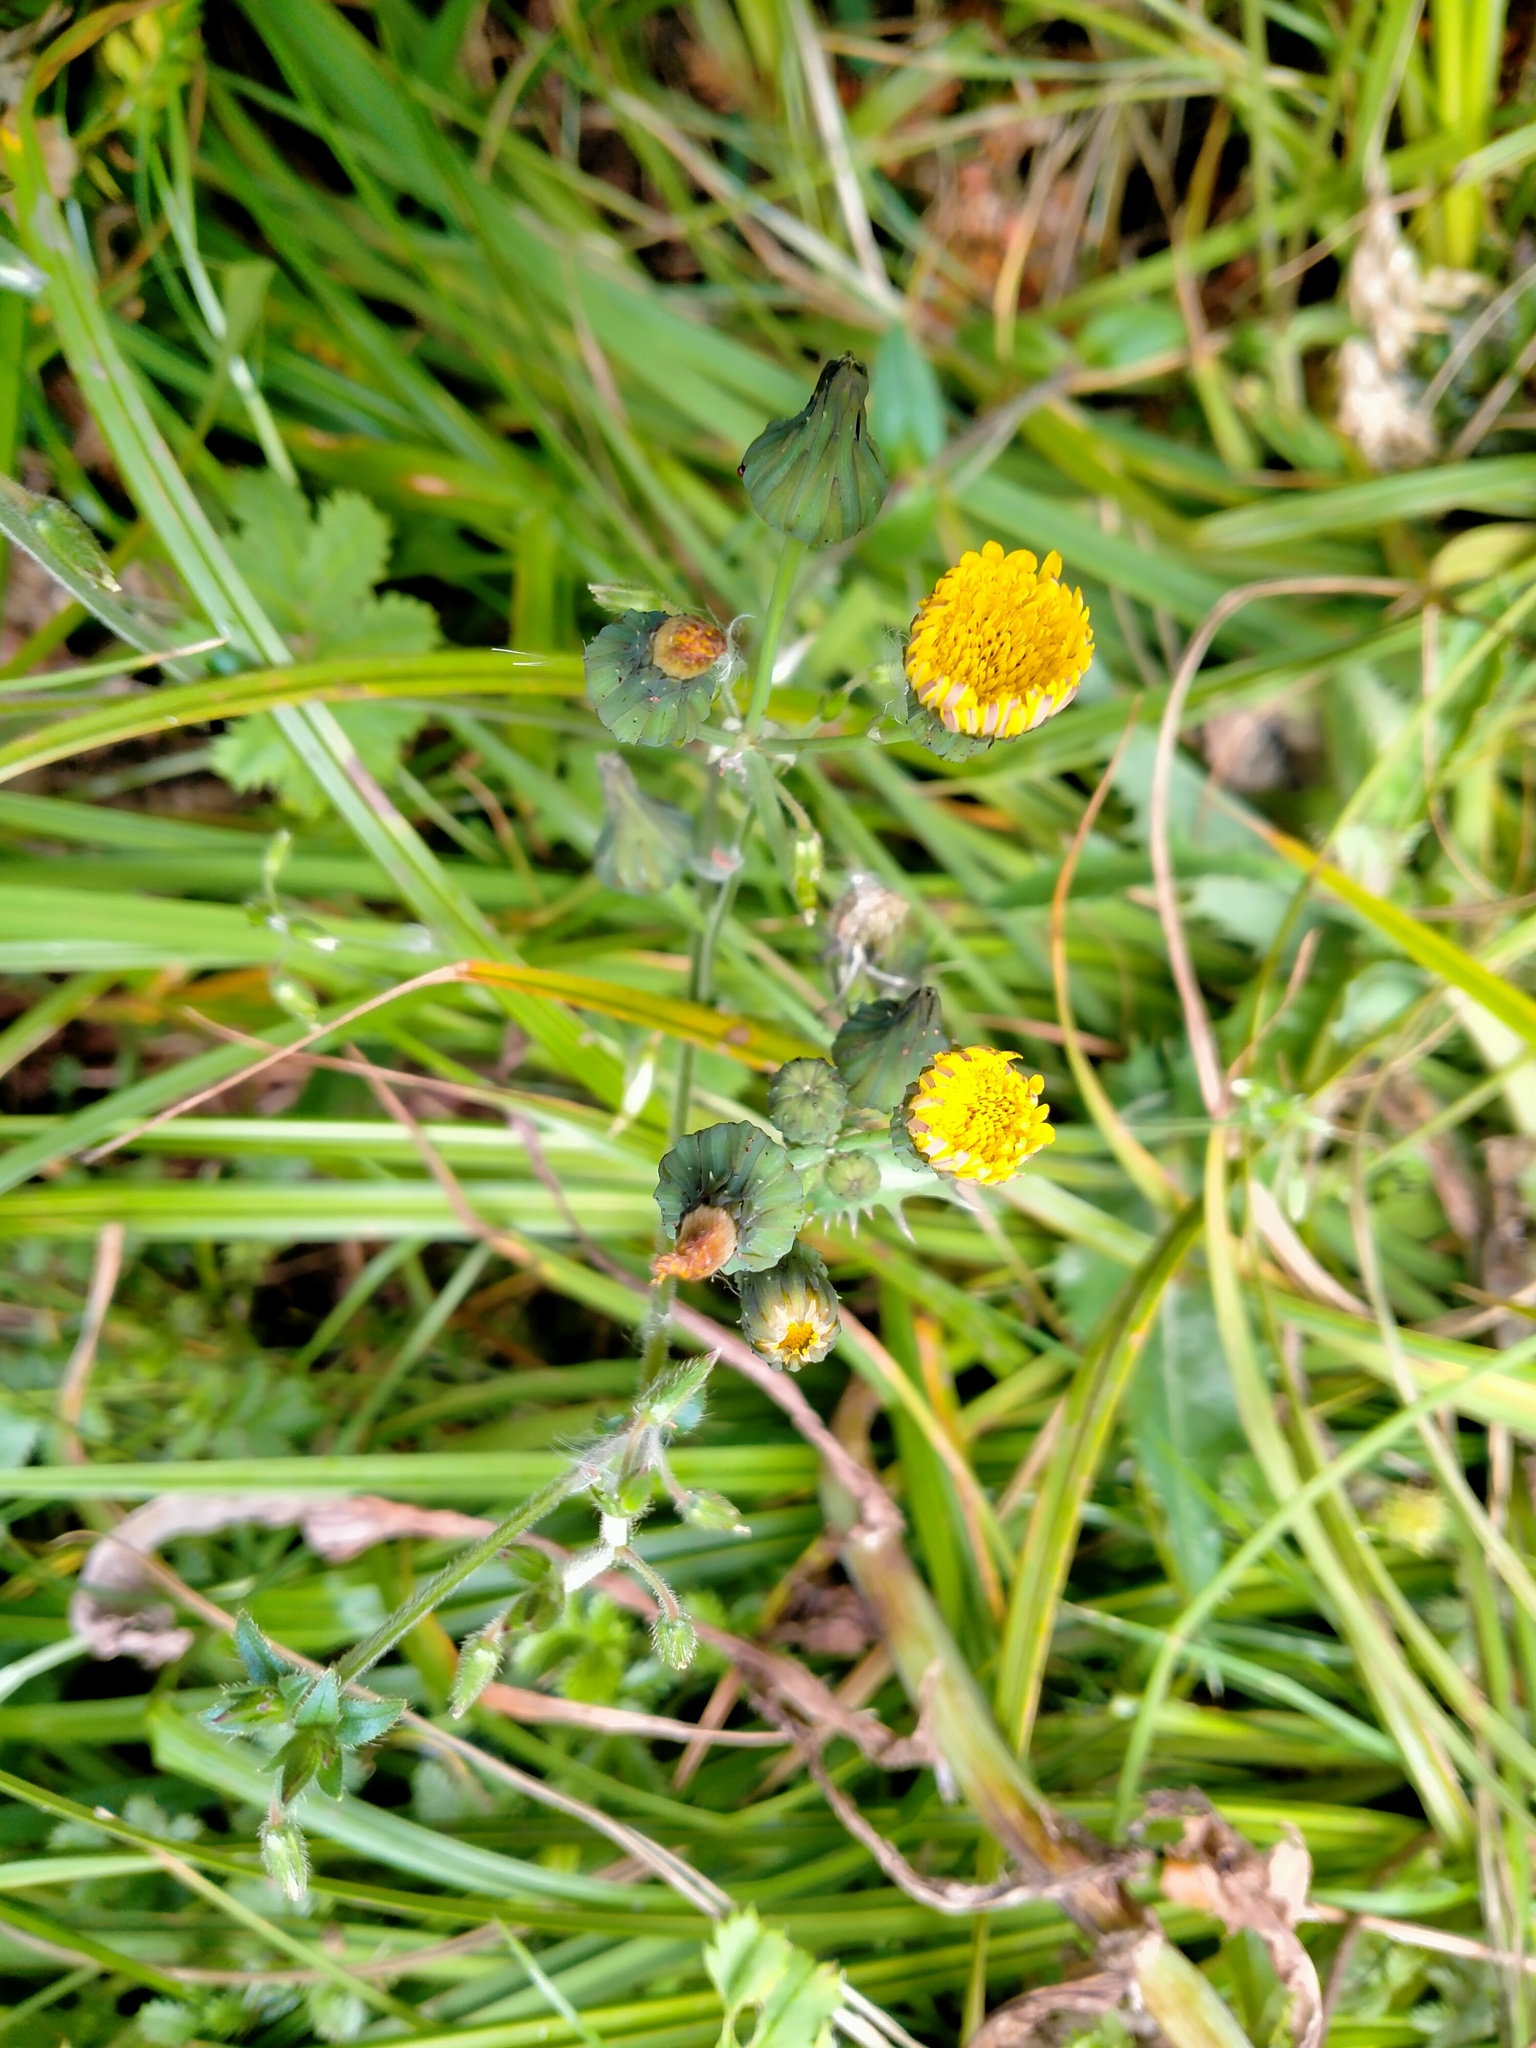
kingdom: Plantae
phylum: Tracheophyta
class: Magnoliopsida
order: Asterales
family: Asteraceae
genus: Sonchus
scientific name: Sonchus oleraceus
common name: Common sowthistle
